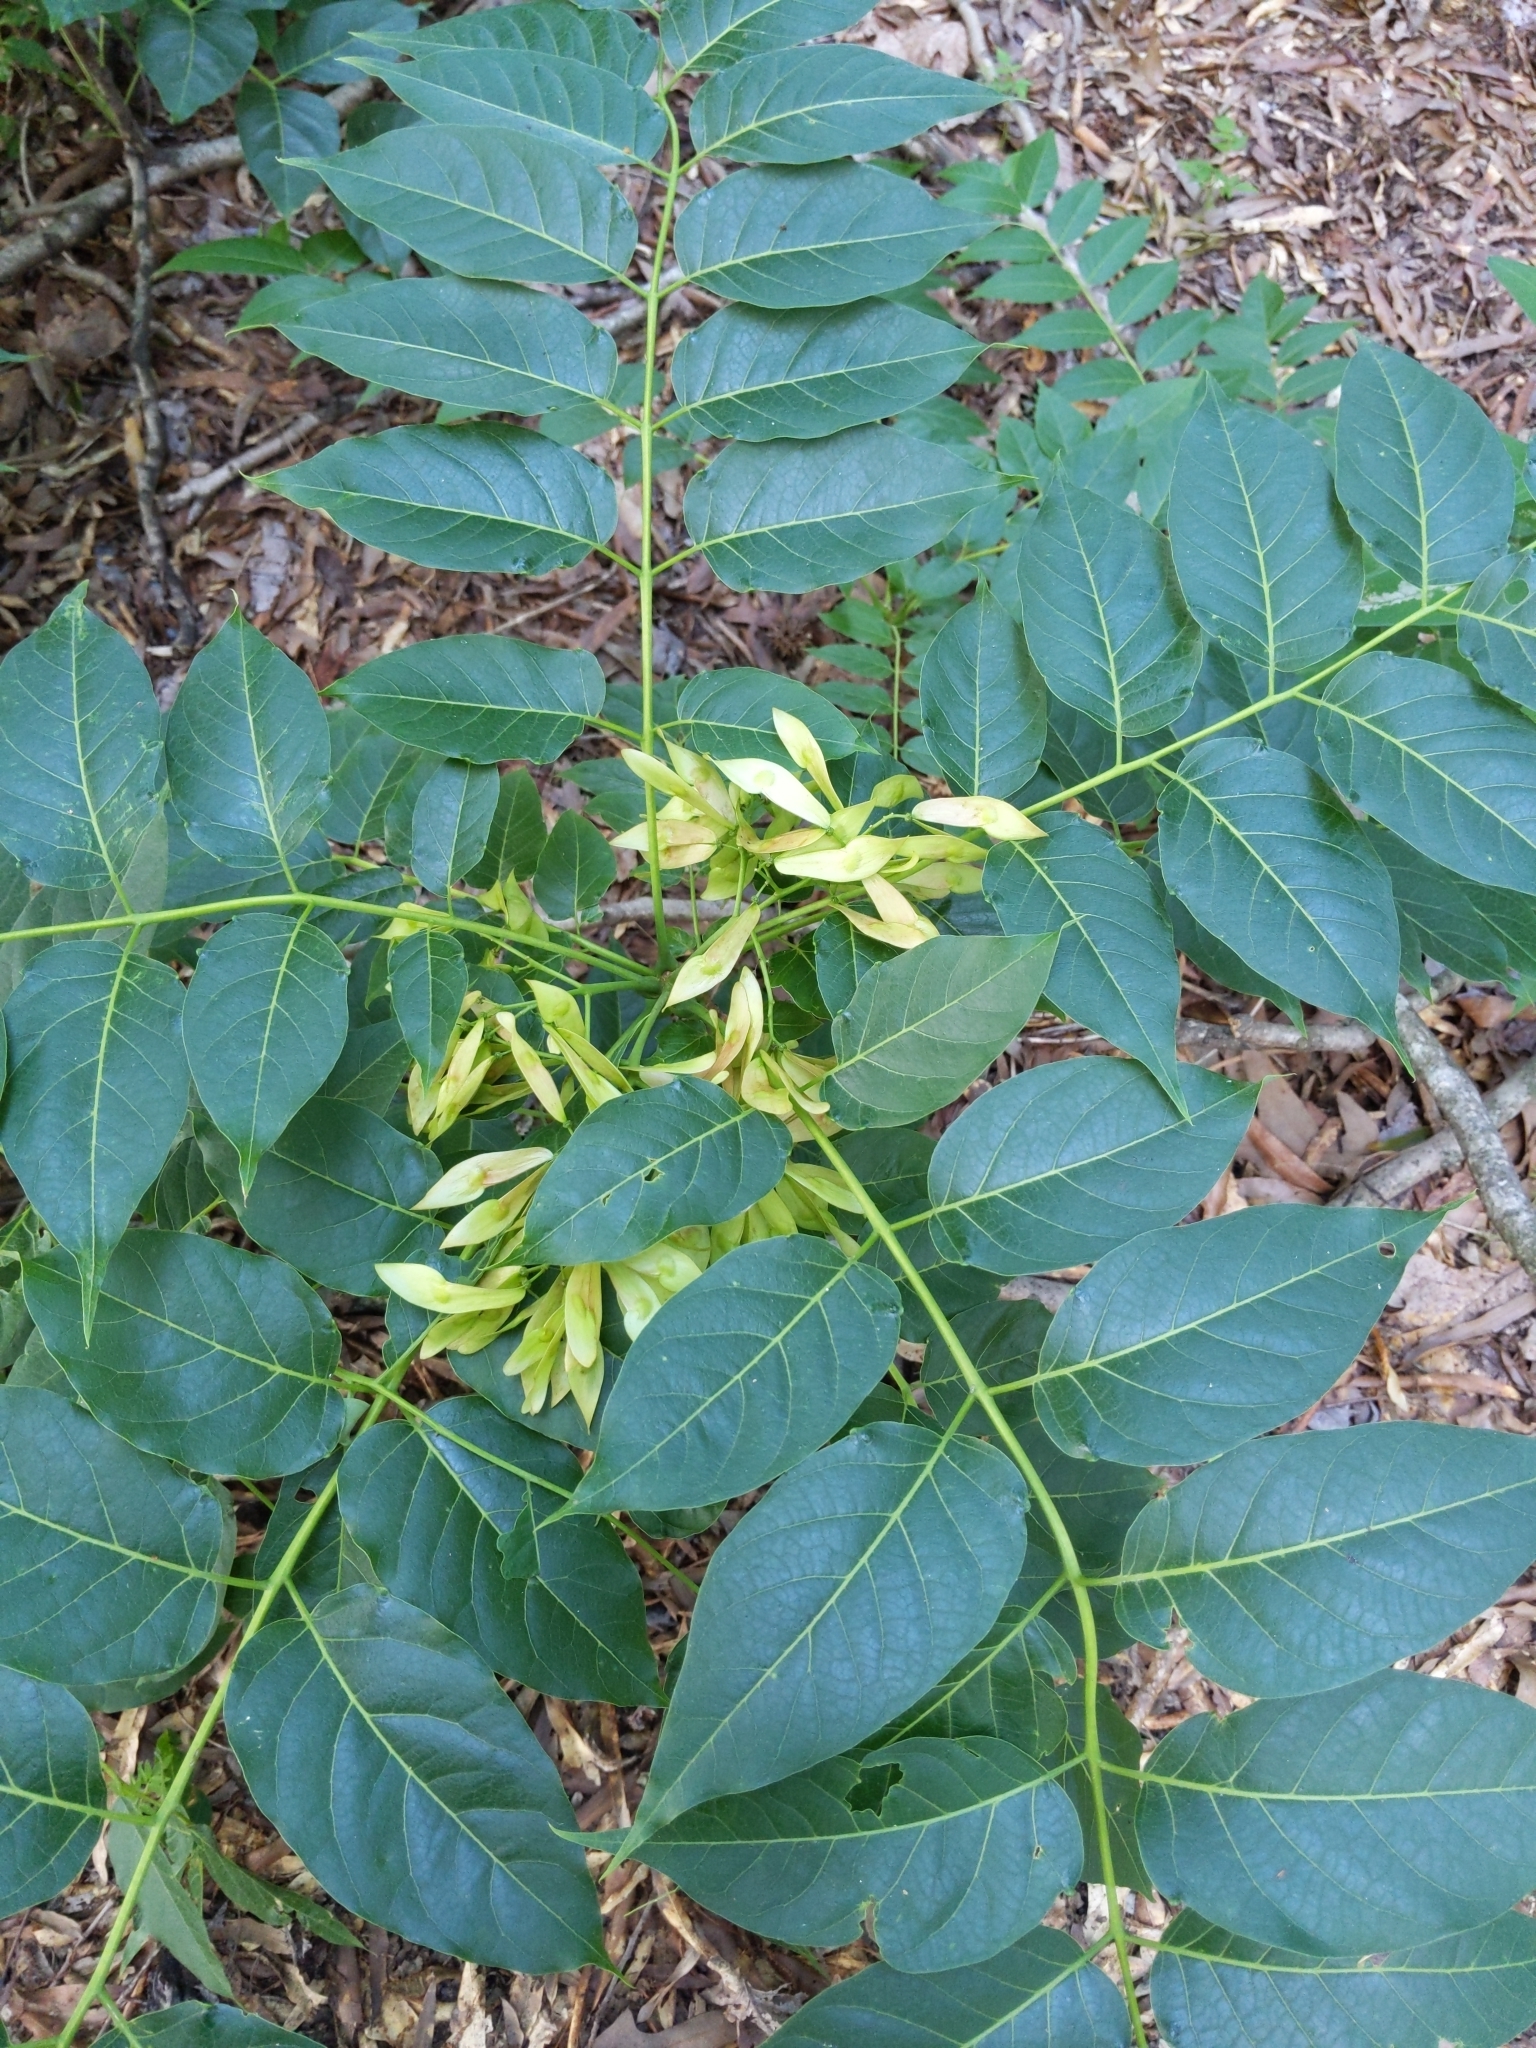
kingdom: Plantae
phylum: Tracheophyta
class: Magnoliopsida
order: Sapindales
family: Simaroubaceae
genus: Ailanthus
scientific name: Ailanthus altissima
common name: Tree-of-heaven
